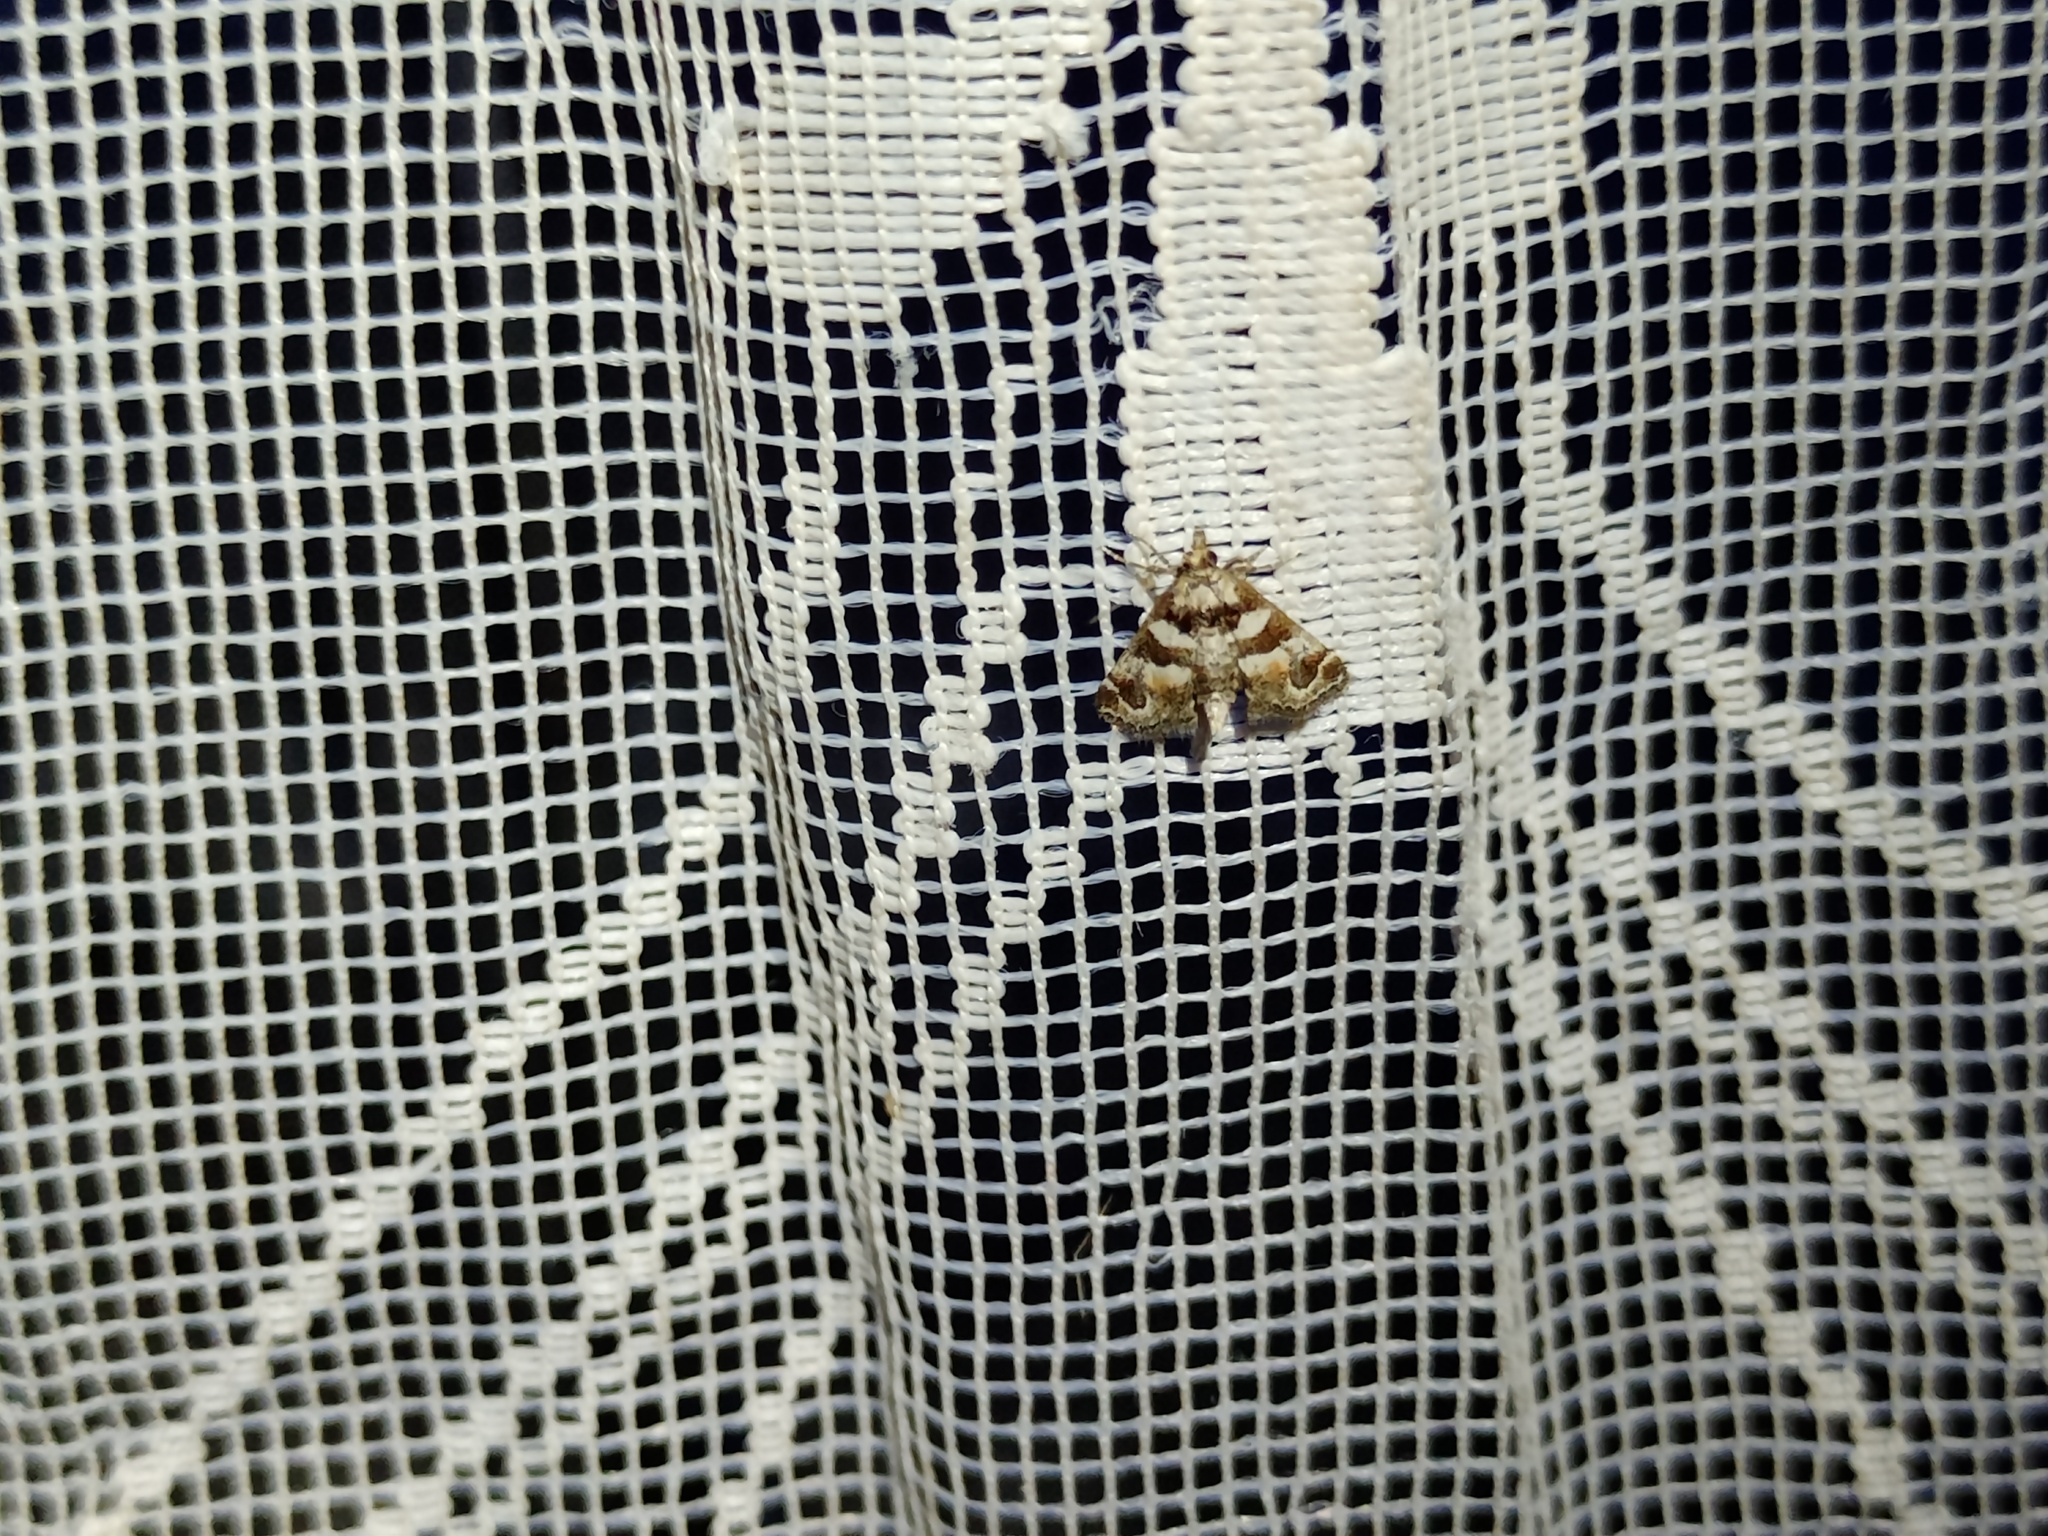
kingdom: Animalia
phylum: Arthropoda
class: Insecta
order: Lepidoptera
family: Pyralidae
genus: Hypotia
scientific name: Hypotia corticalis
